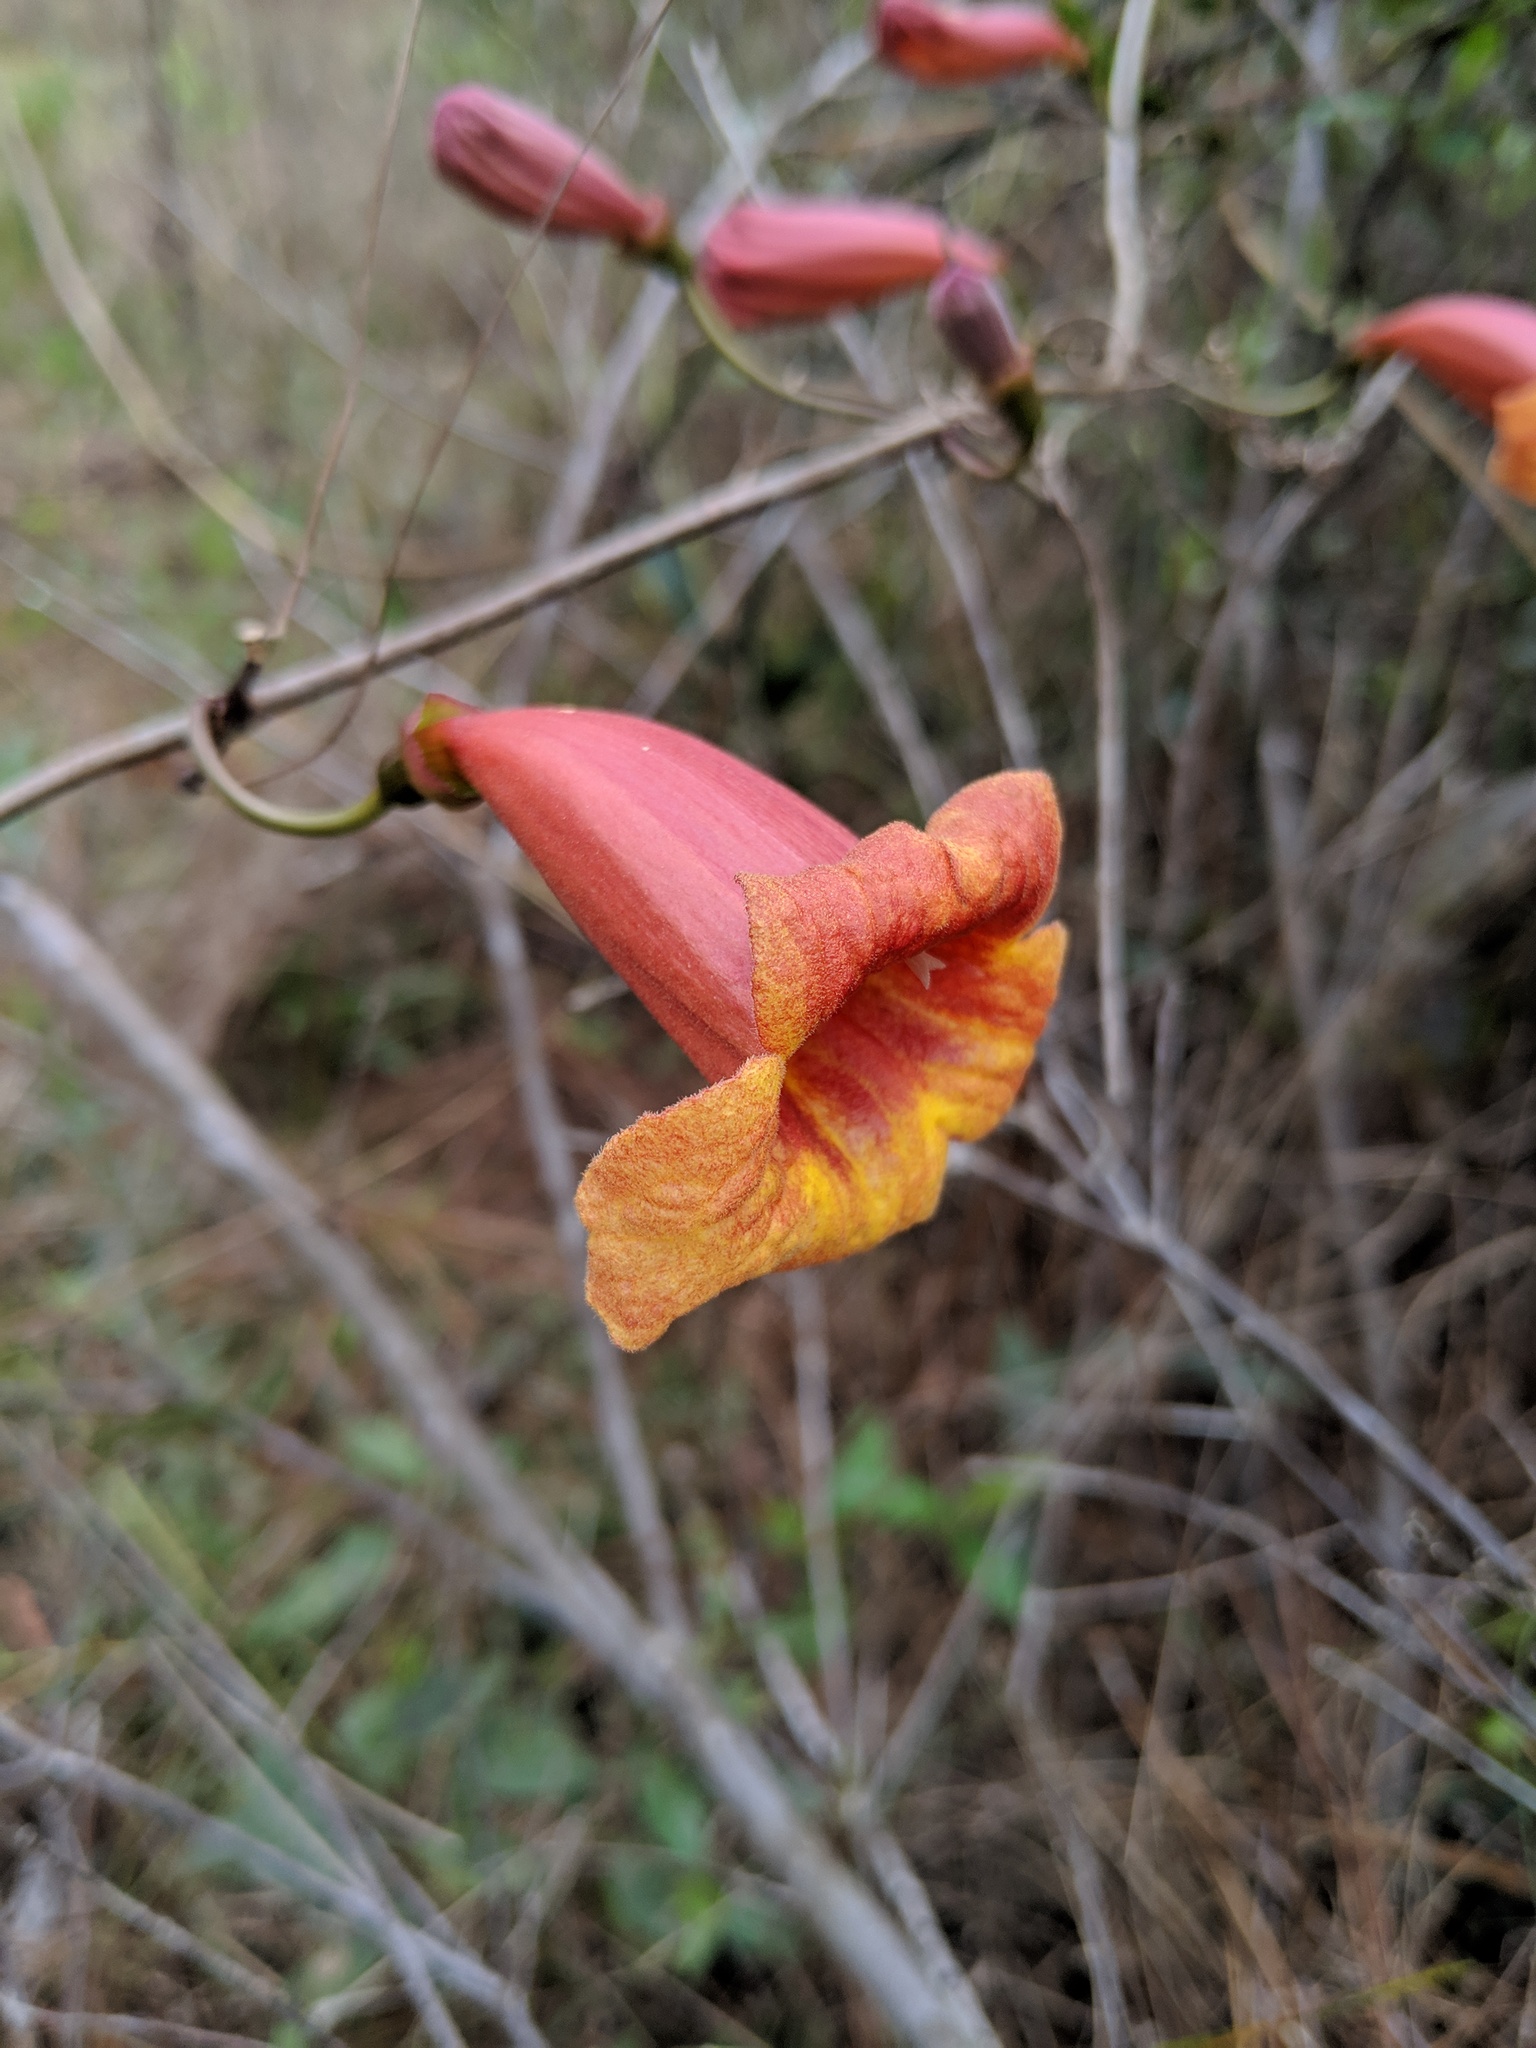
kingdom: Plantae
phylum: Tracheophyta
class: Magnoliopsida
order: Lamiales
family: Bignoniaceae
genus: Bignonia
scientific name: Bignonia capreolata
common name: Crossvine
